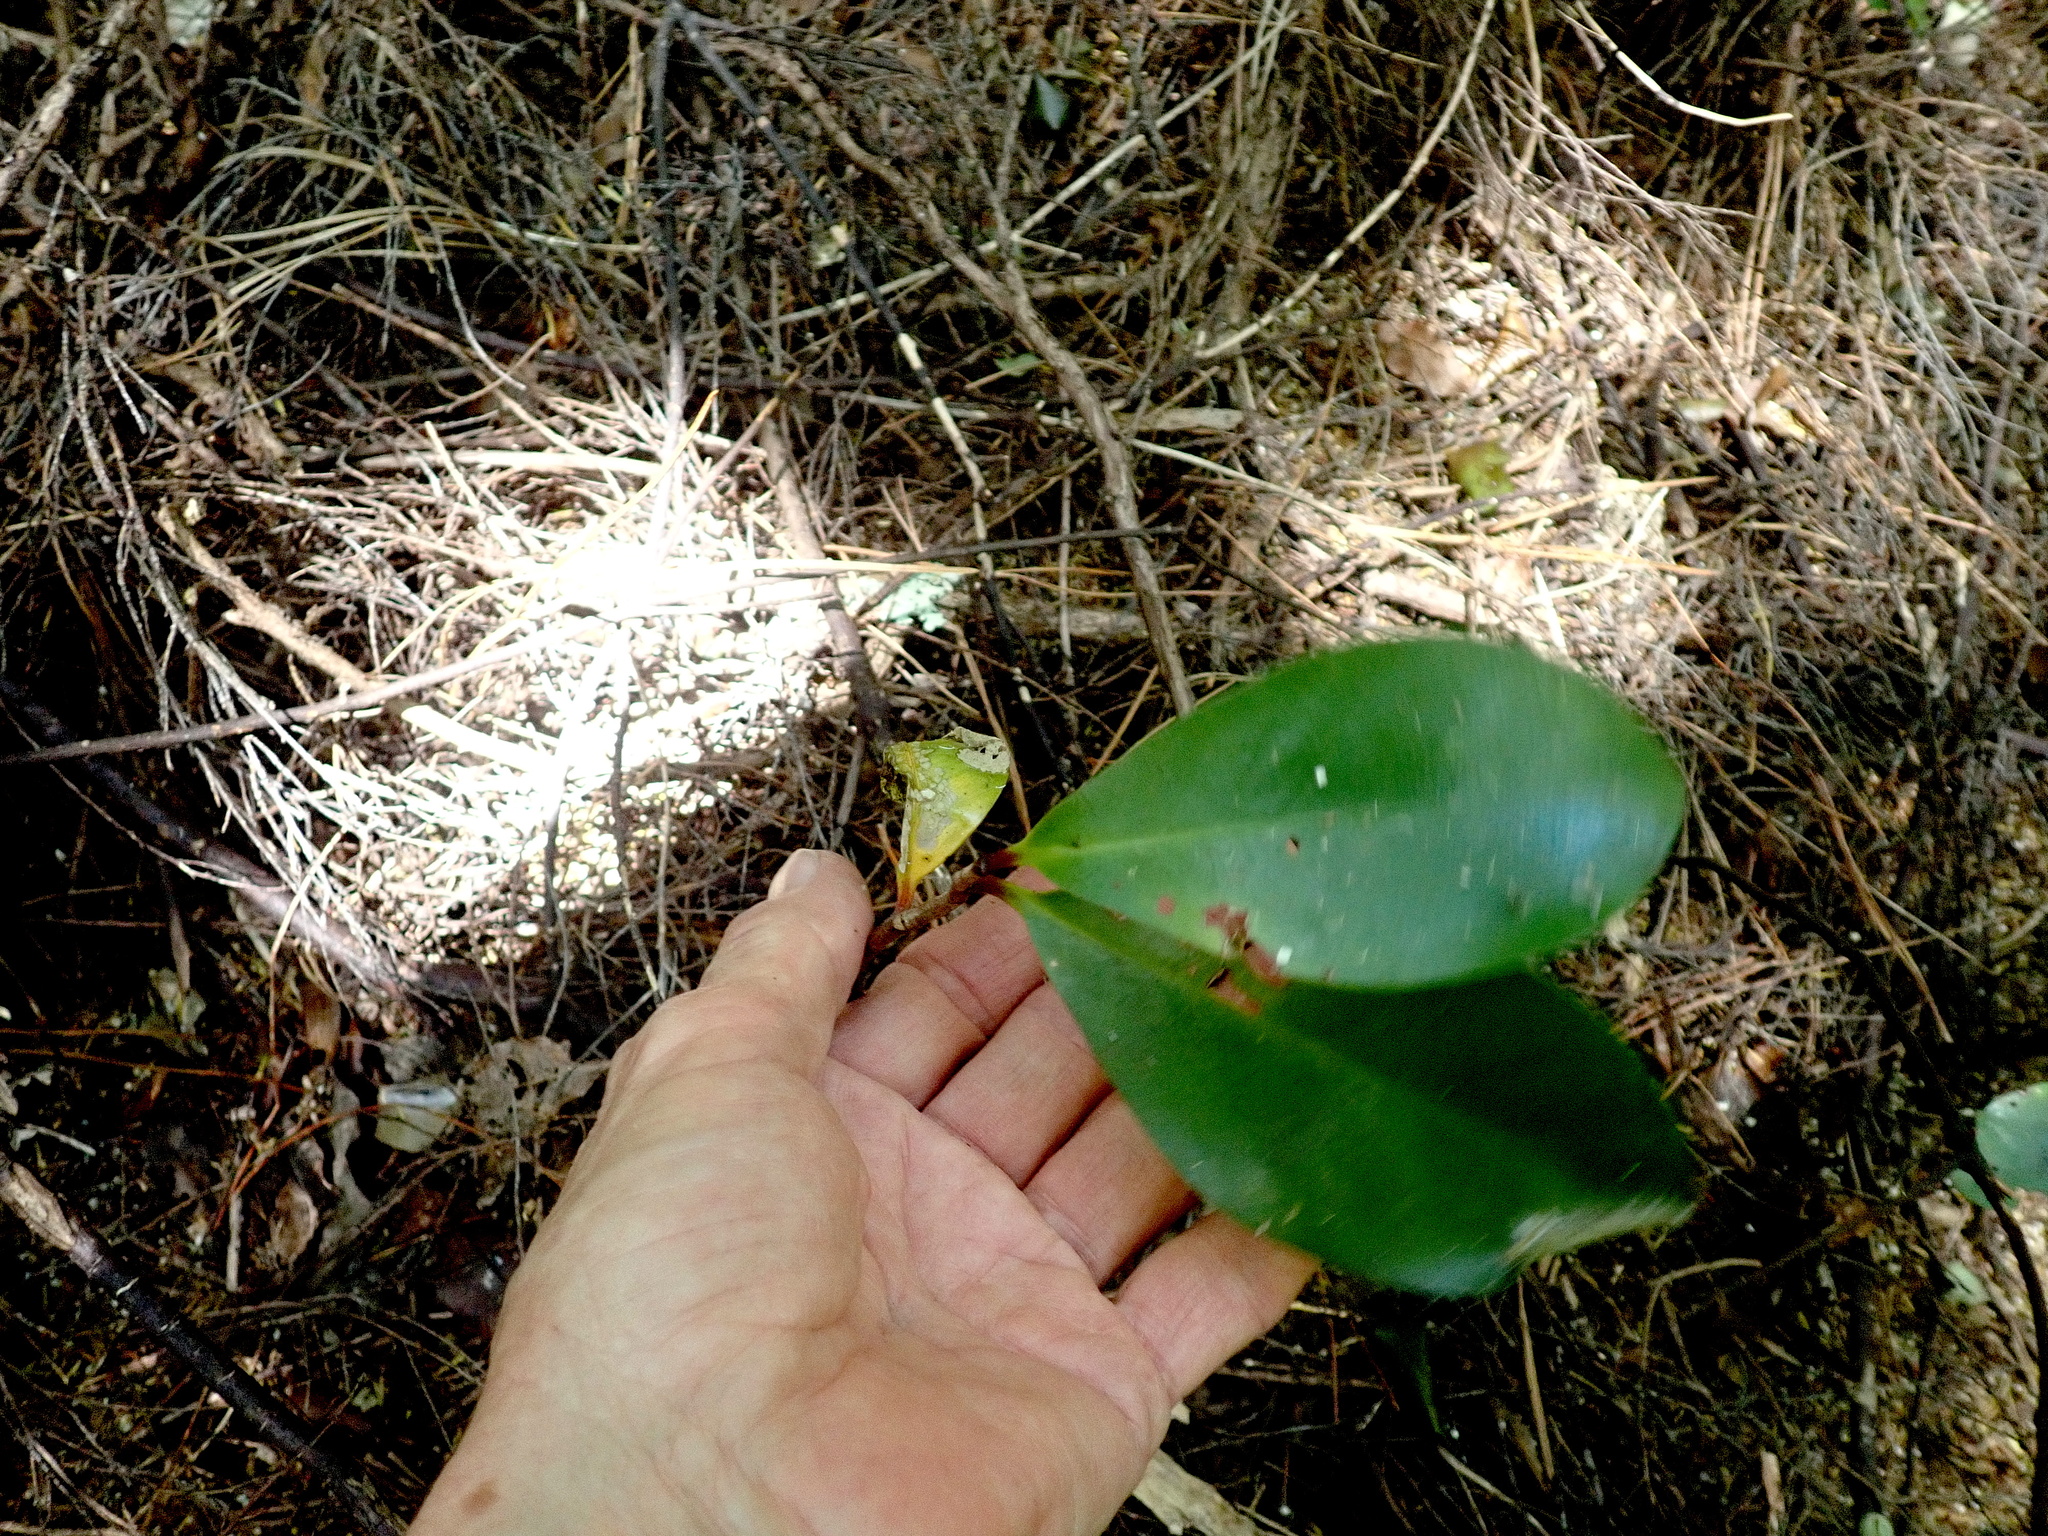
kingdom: Plantae
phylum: Tracheophyta
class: Magnoliopsida
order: Cucurbitales
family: Corynocarpaceae
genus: Corynocarpus
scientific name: Corynocarpus laevigatus
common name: New zealand laurel
